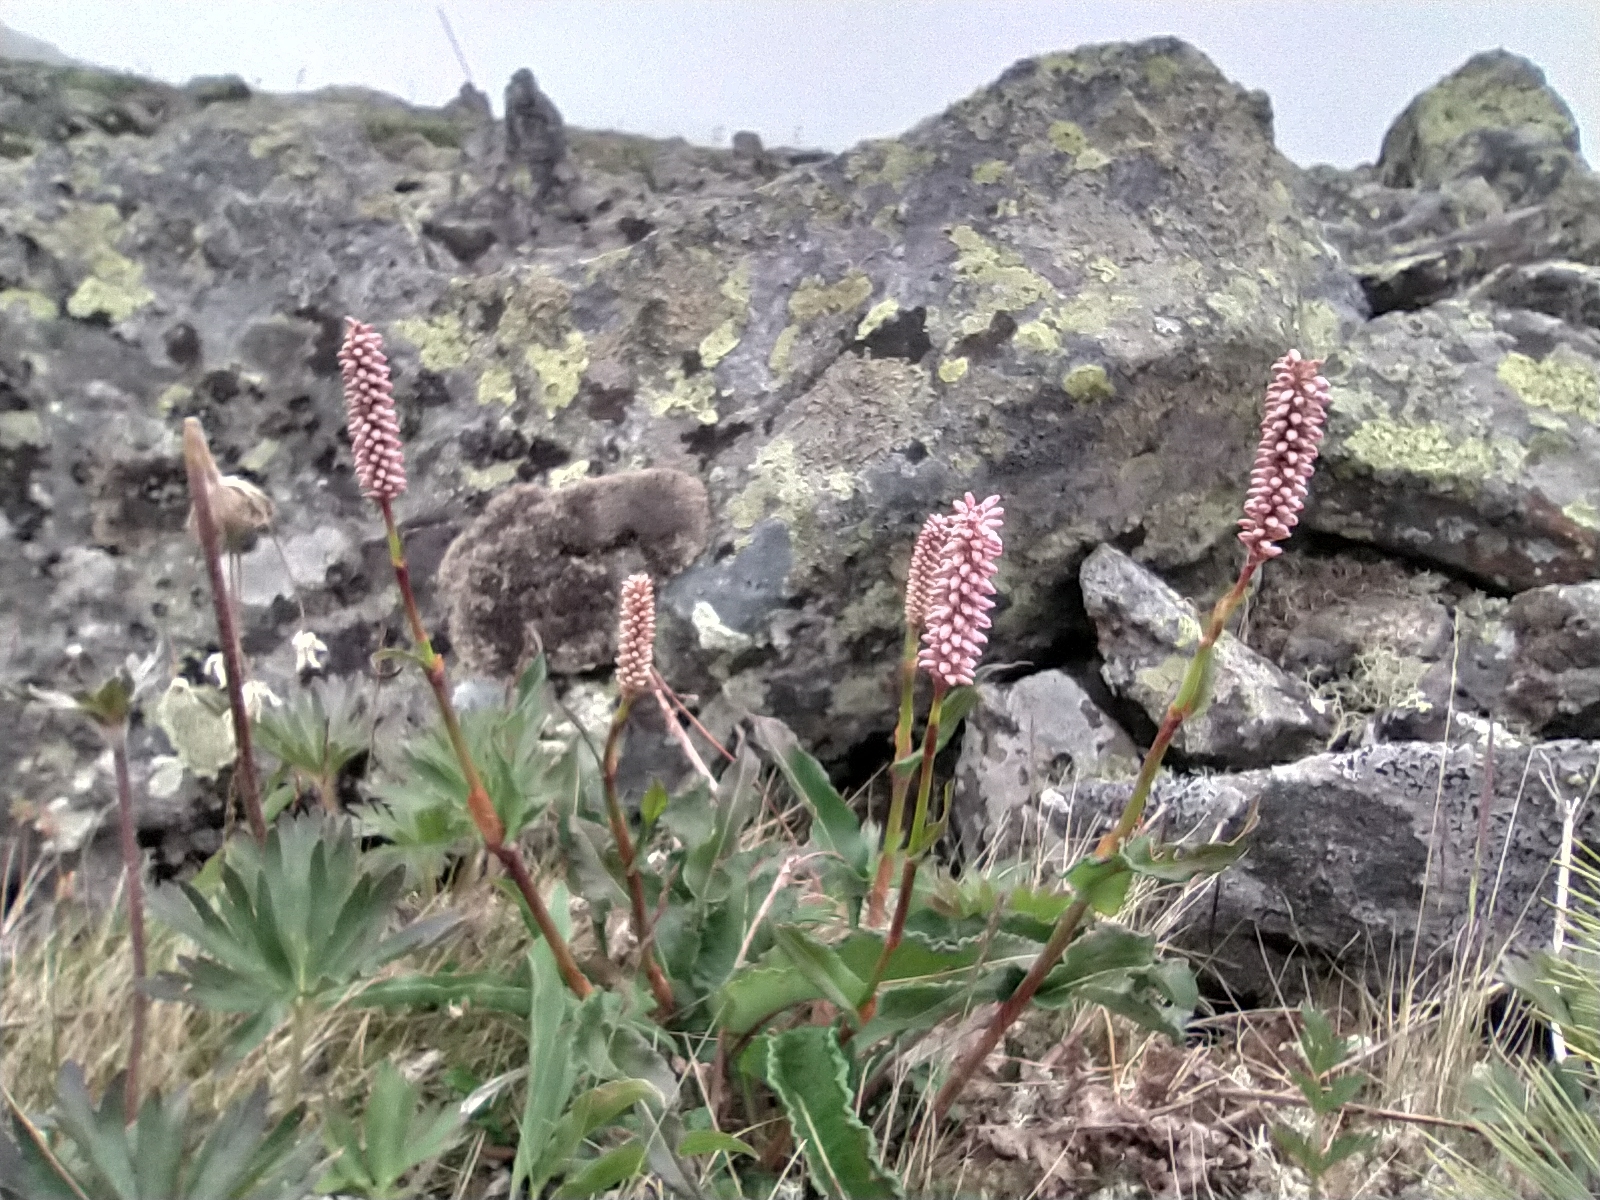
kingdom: Plantae
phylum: Tracheophyta
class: Magnoliopsida
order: Caryophyllales
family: Polygonaceae
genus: Bistorta
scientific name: Bistorta officinalis
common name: Common bistort
